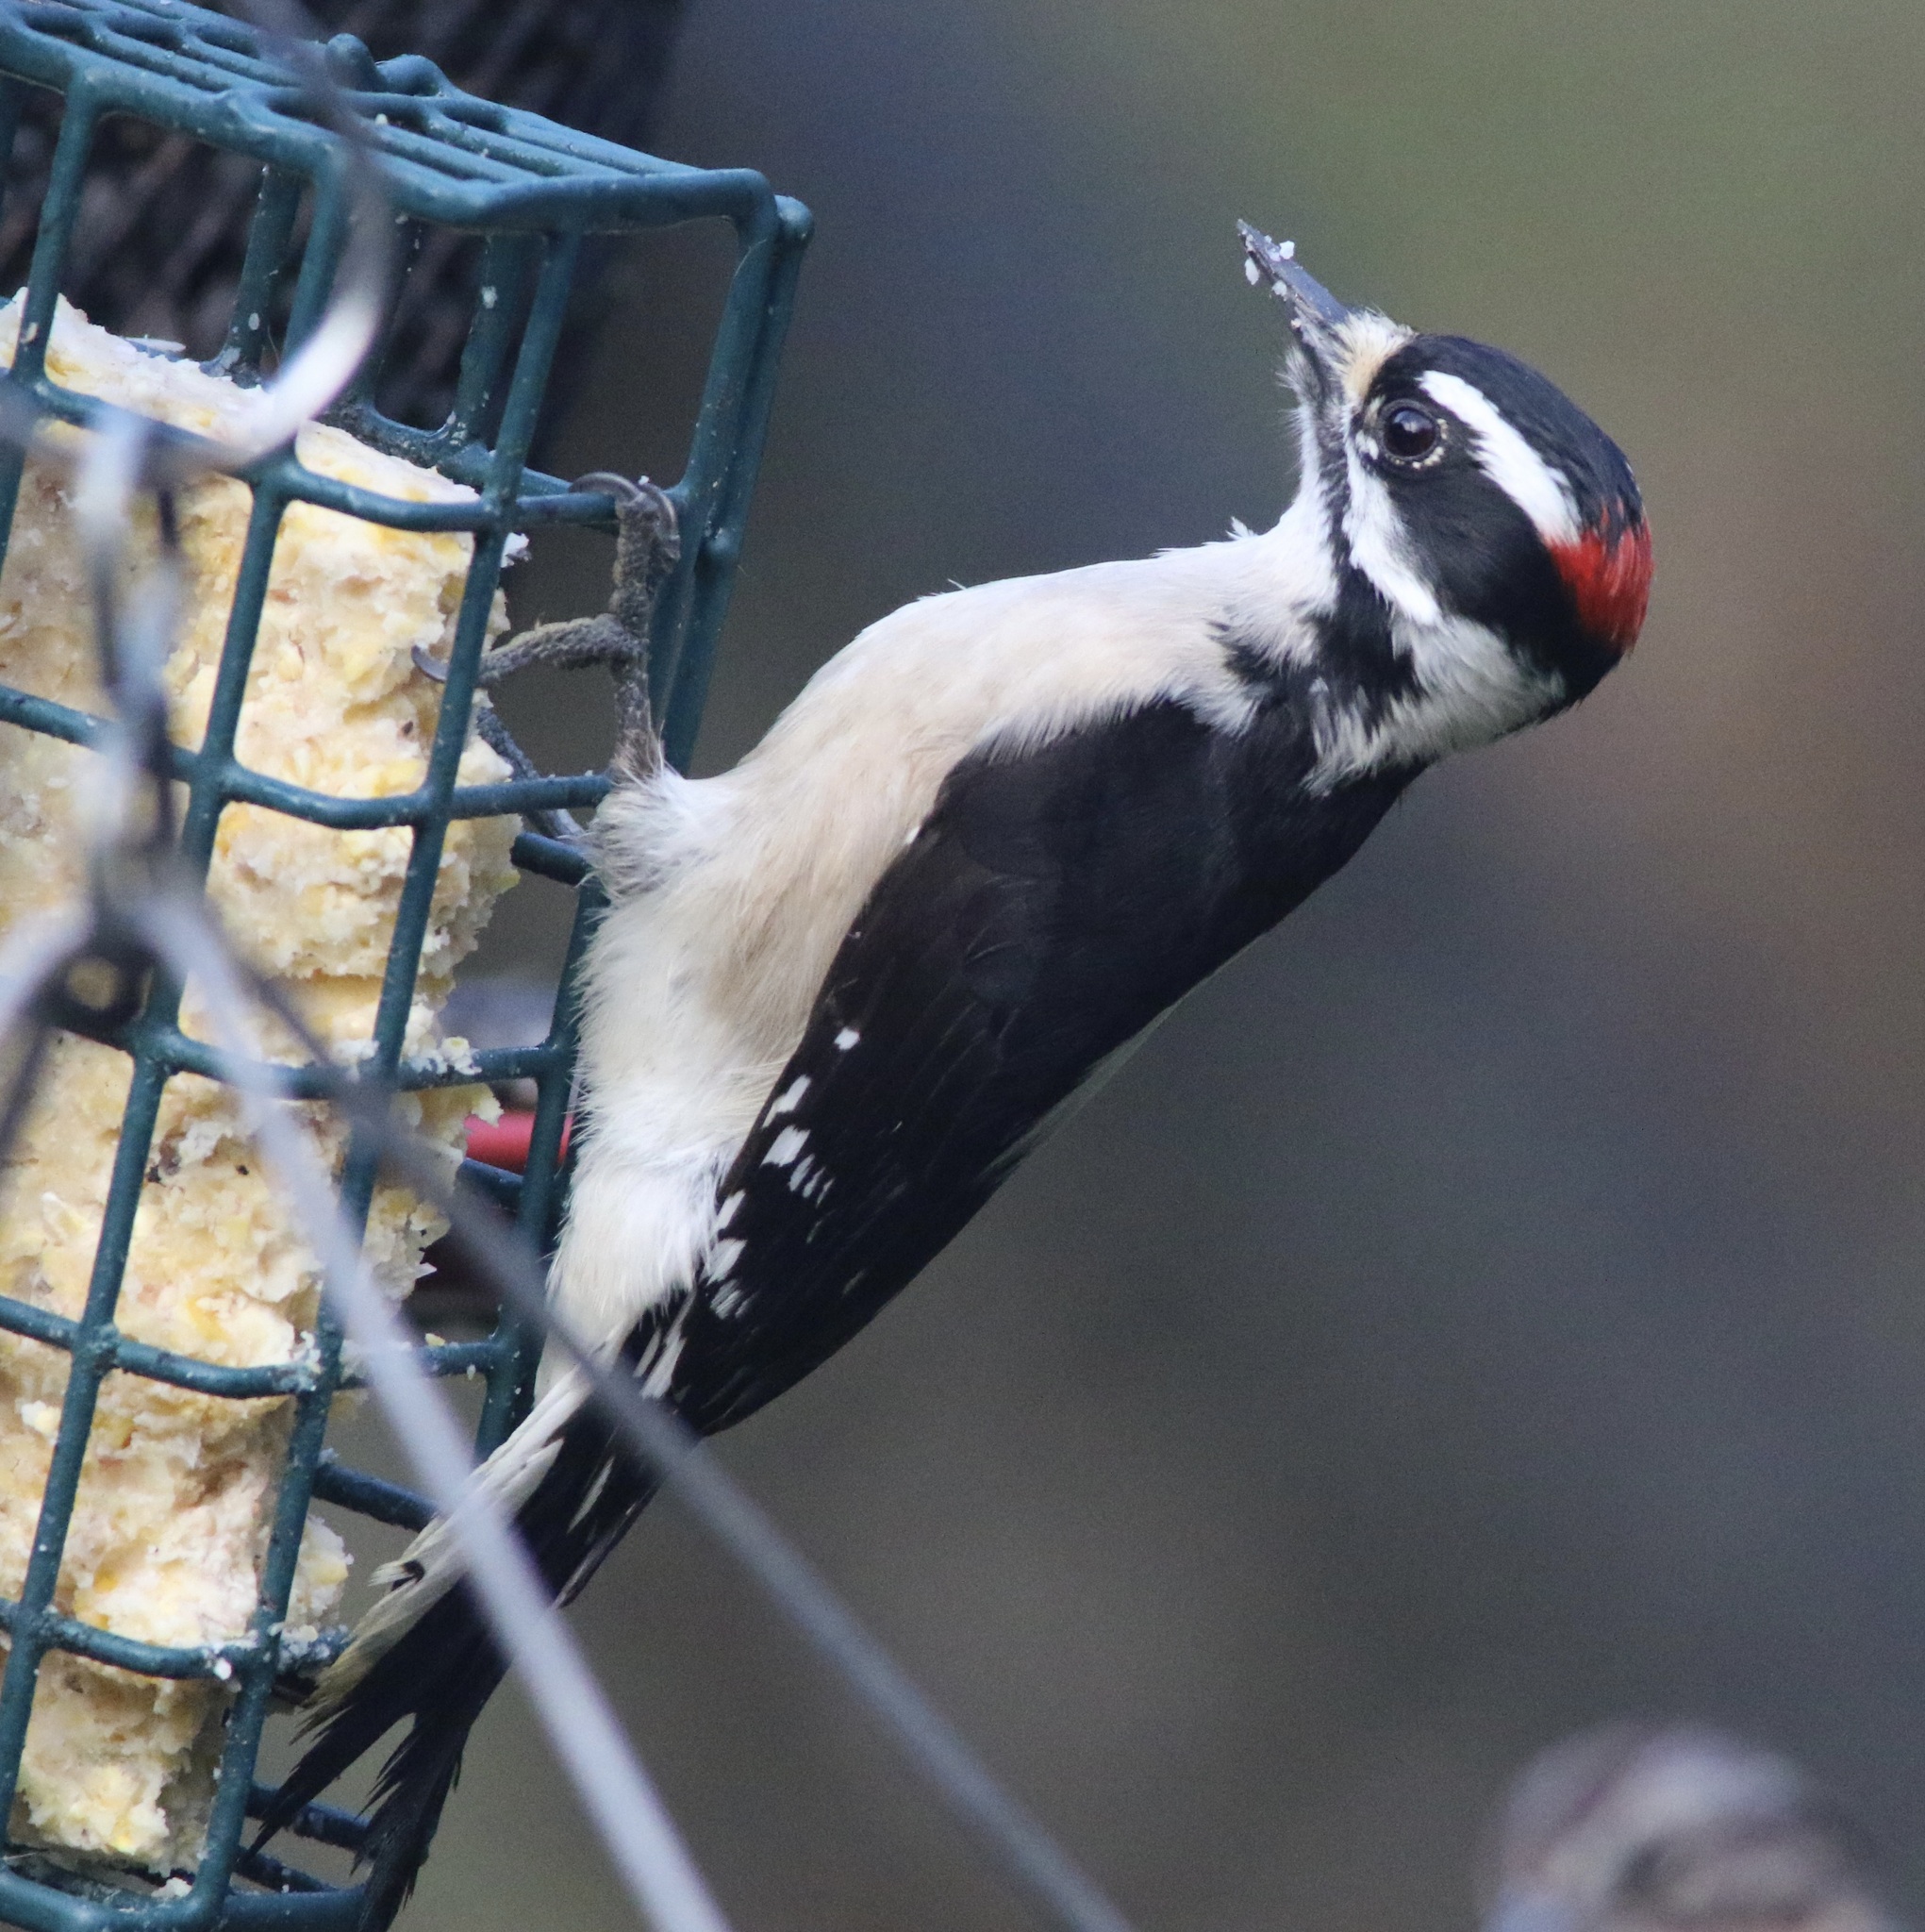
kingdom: Animalia
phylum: Chordata
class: Aves
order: Piciformes
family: Picidae
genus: Dryobates
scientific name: Dryobates pubescens
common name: Downy woodpecker
